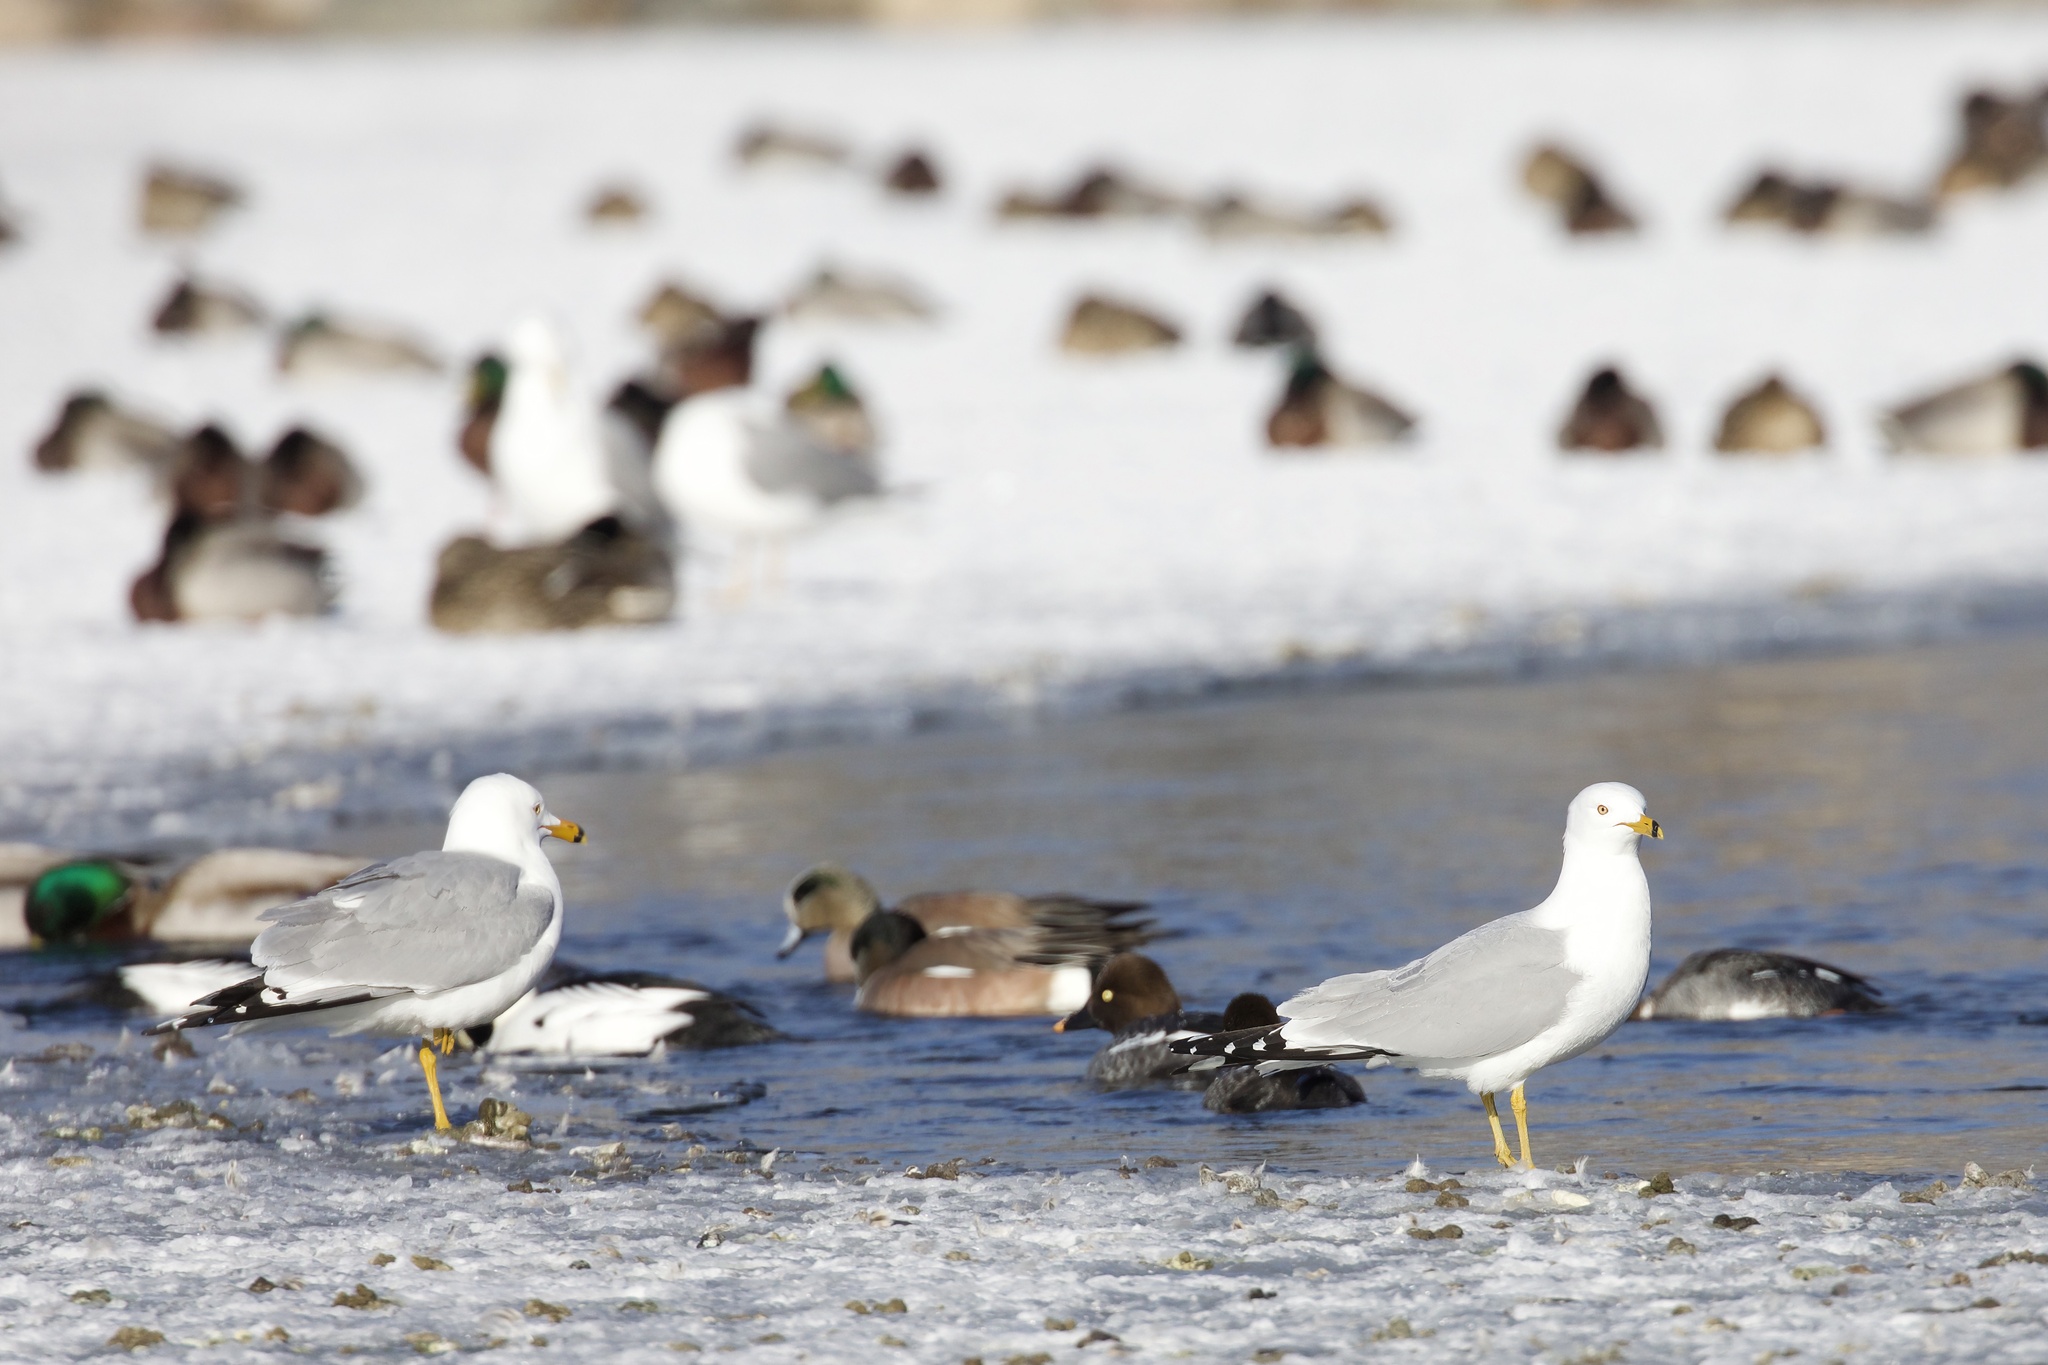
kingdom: Animalia
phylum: Chordata
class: Aves
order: Charadriiformes
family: Laridae
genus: Larus
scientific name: Larus delawarensis
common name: Ring-billed gull
